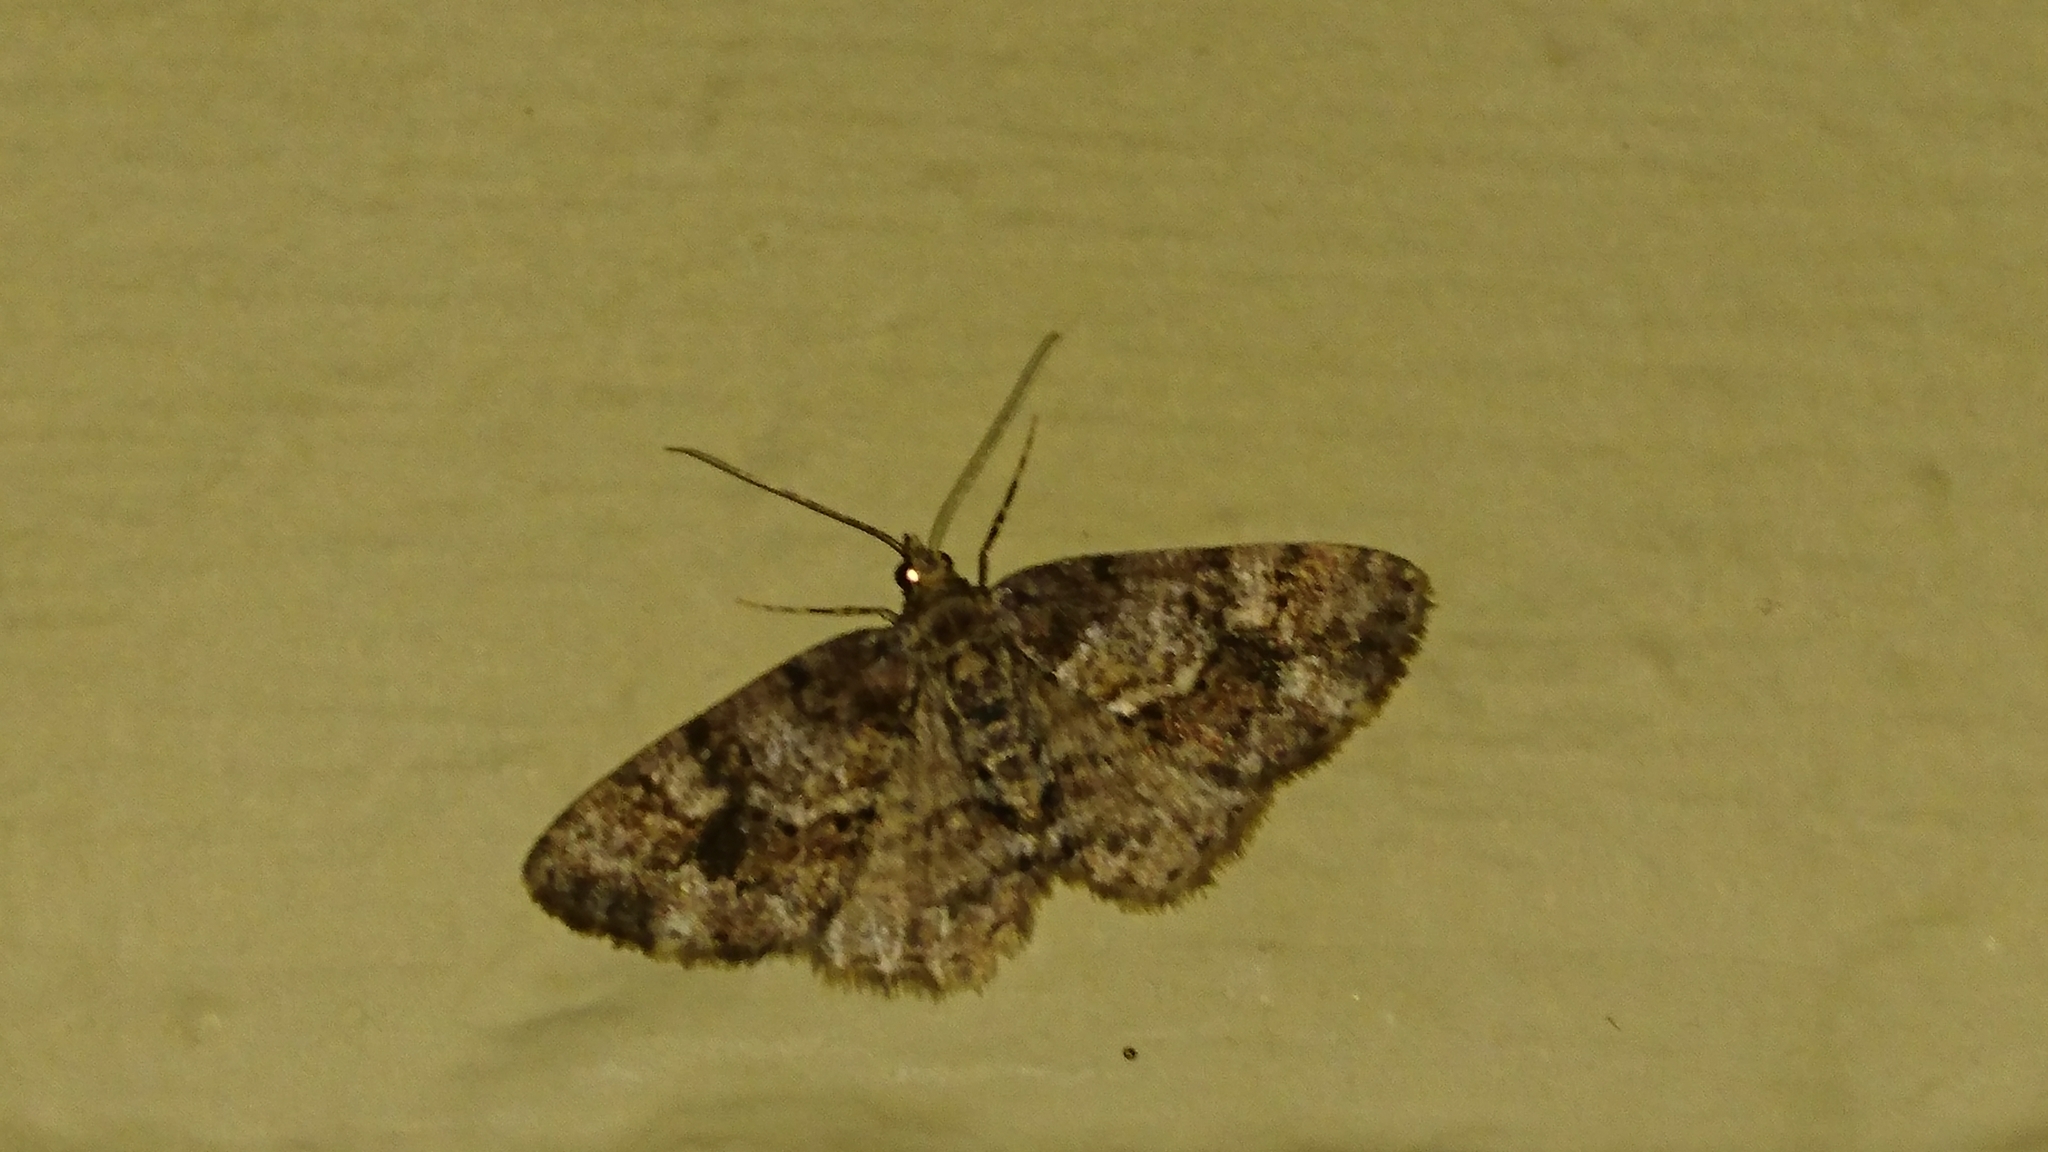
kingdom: Animalia
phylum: Arthropoda
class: Insecta
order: Lepidoptera
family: Geometridae
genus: Alcis
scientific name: Alcis
